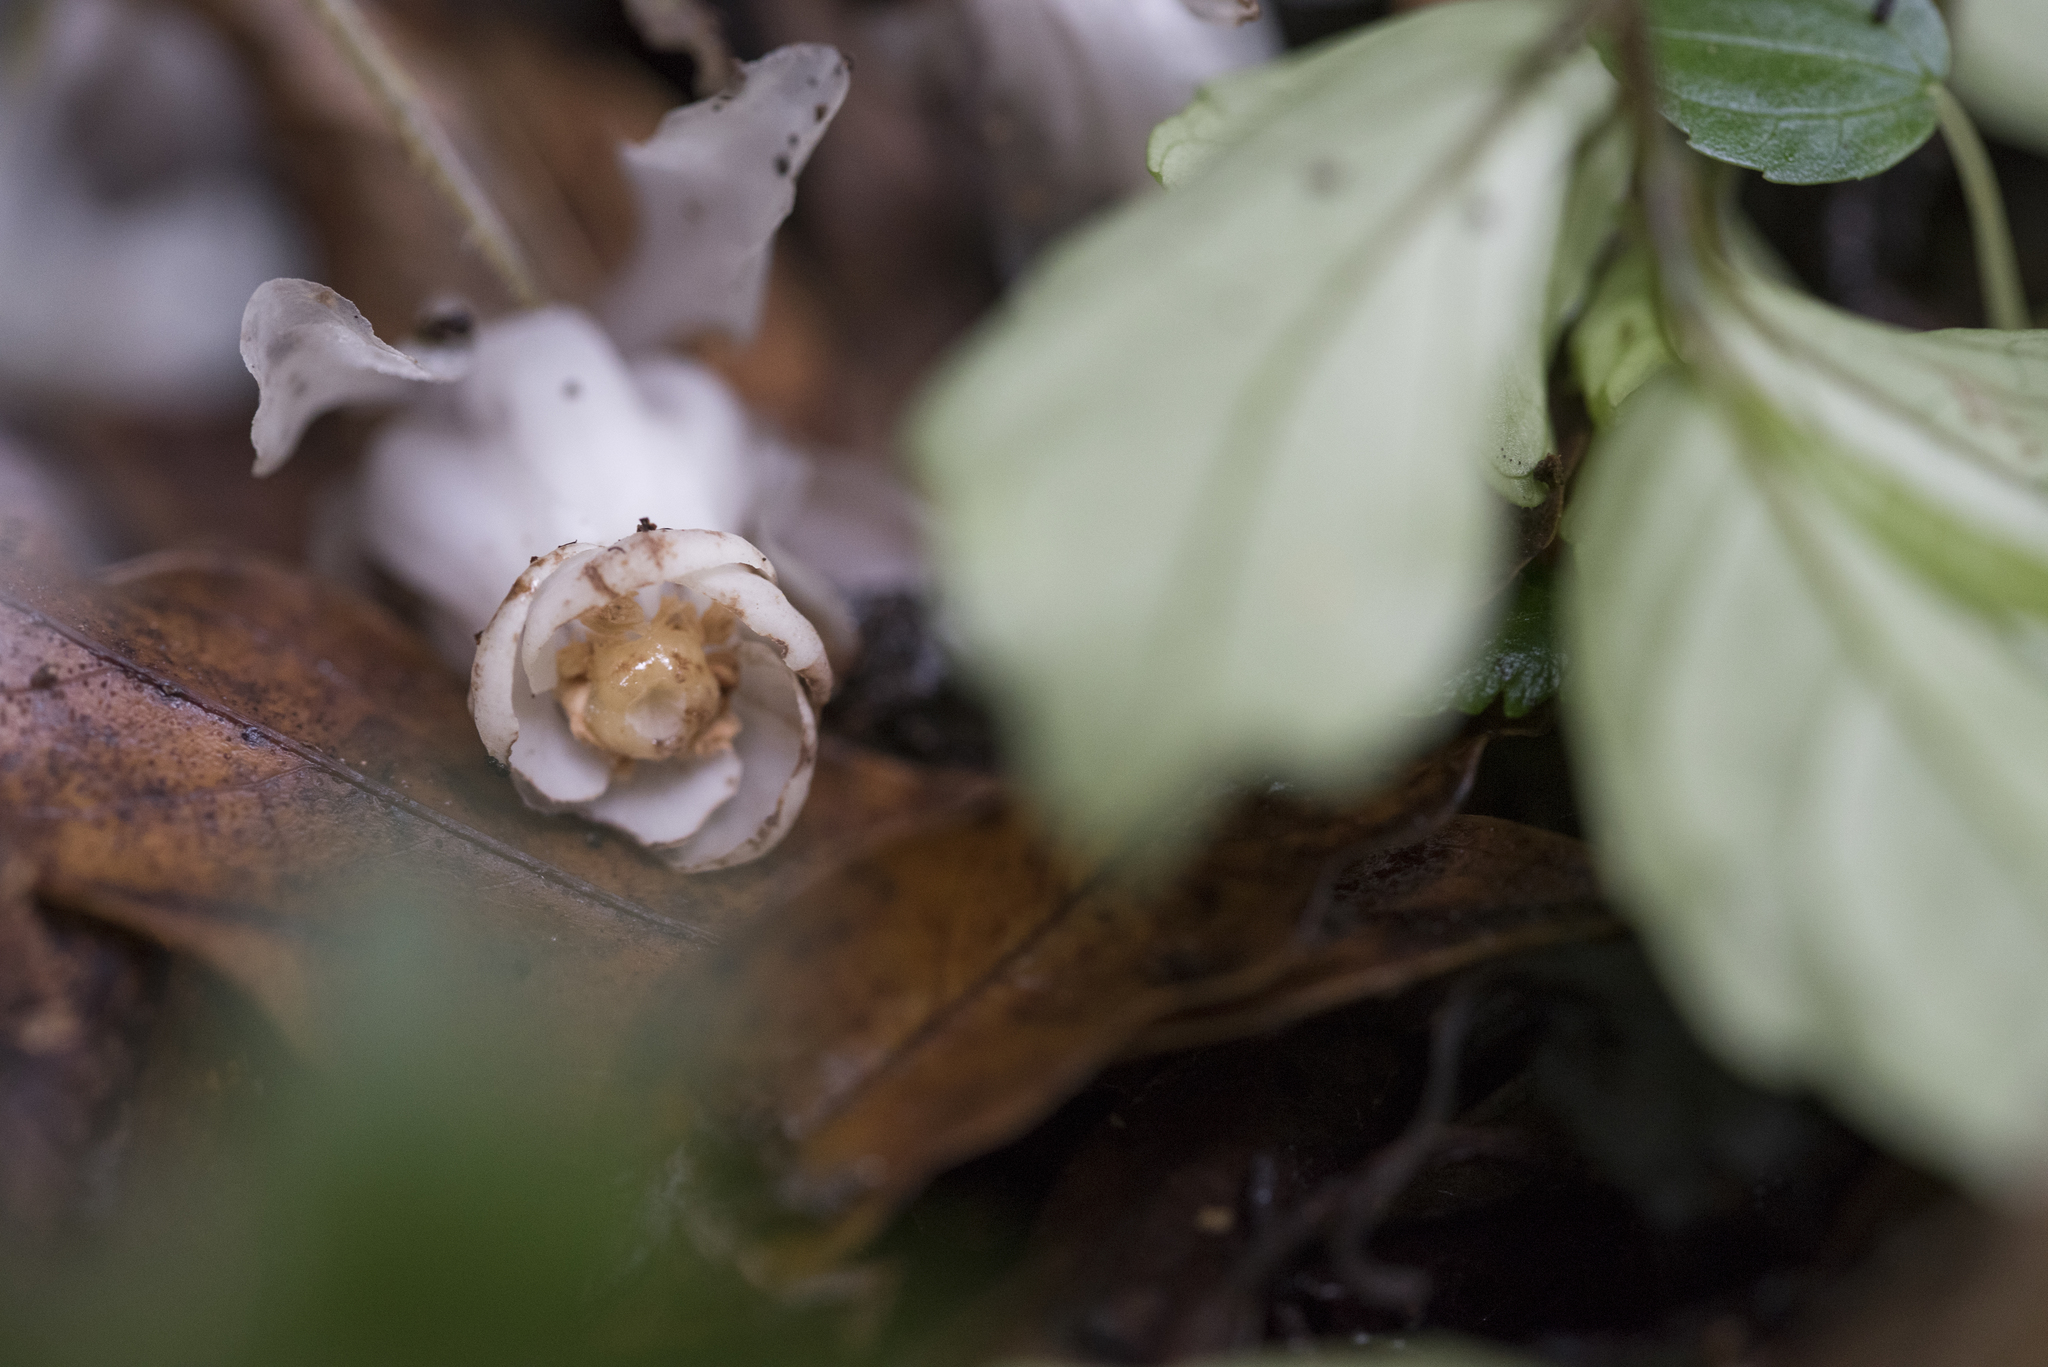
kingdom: Plantae
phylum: Tracheophyta
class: Magnoliopsida
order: Ericales
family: Ericaceae
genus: Monotropastrum
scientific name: Monotropastrum humile
